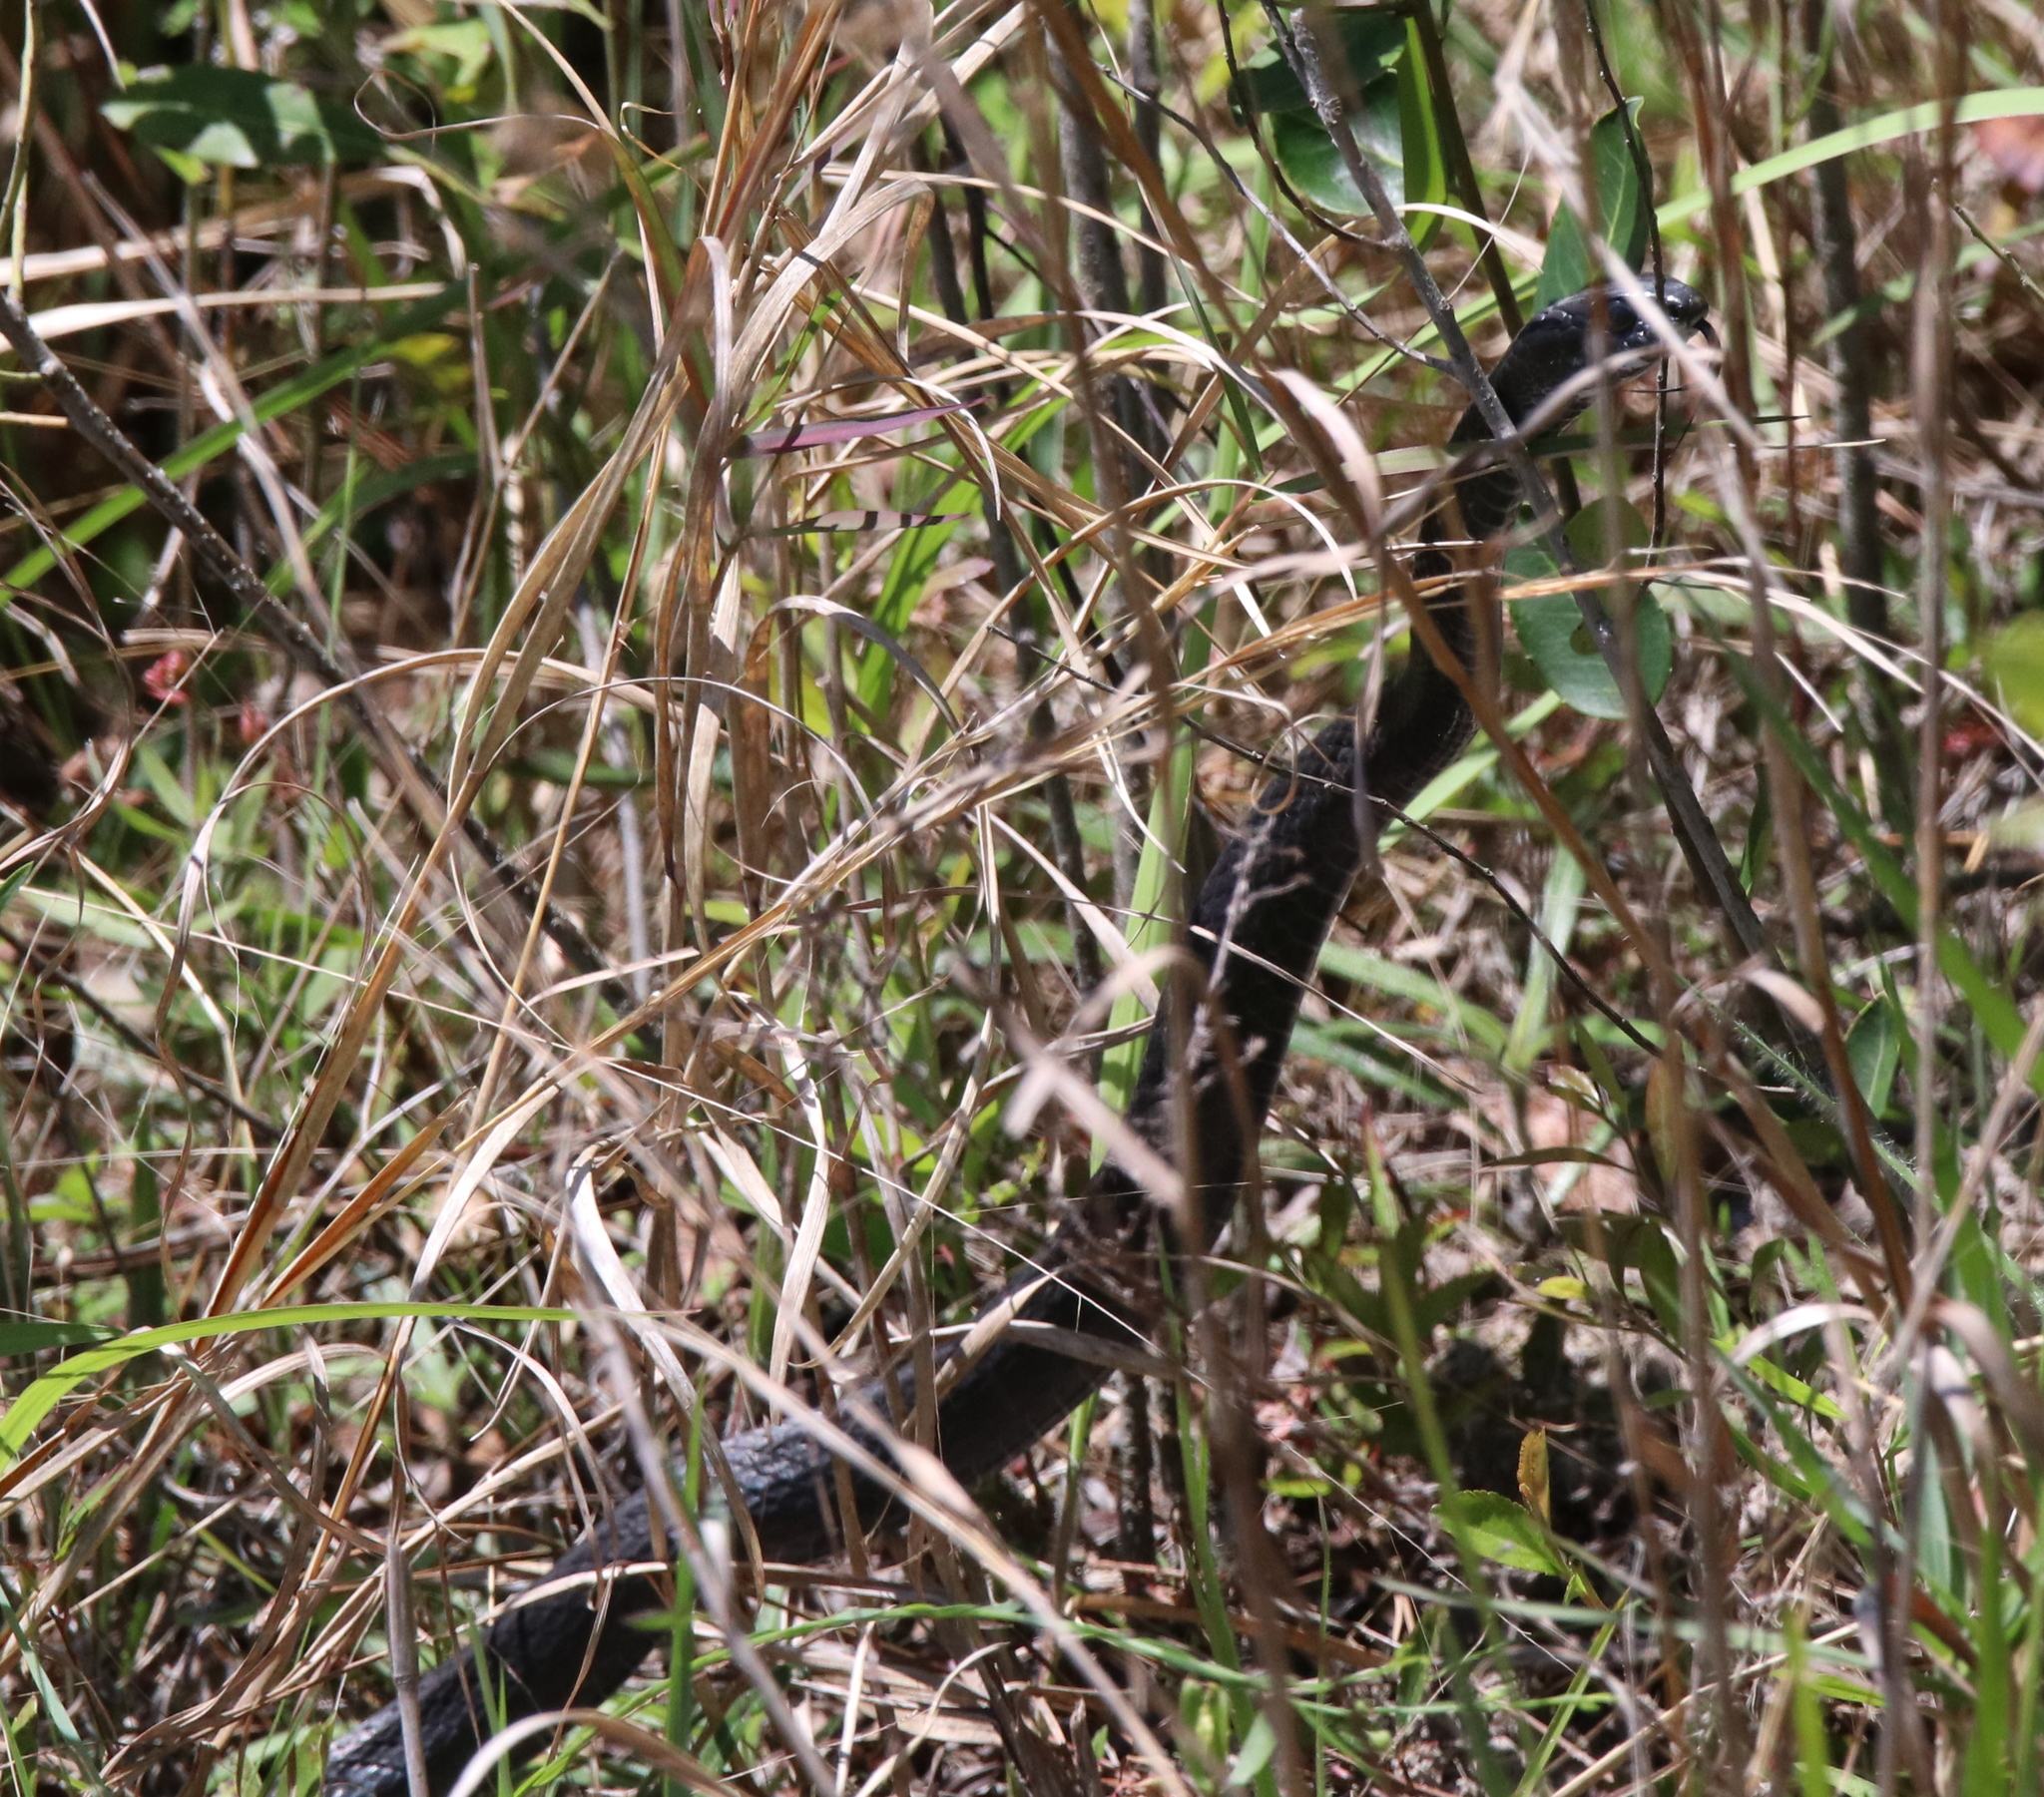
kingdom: Animalia
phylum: Chordata
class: Squamata
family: Colubridae
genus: Coluber
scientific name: Coluber constrictor
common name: Eastern racer
